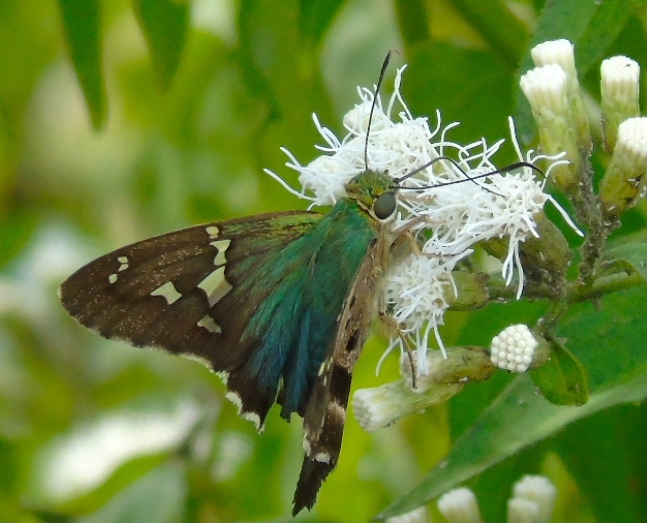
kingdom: Animalia
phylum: Arthropoda
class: Insecta
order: Lepidoptera
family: Hesperiidae
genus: Urbanus
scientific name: Urbanus proteus
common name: Long-tailed skipper
